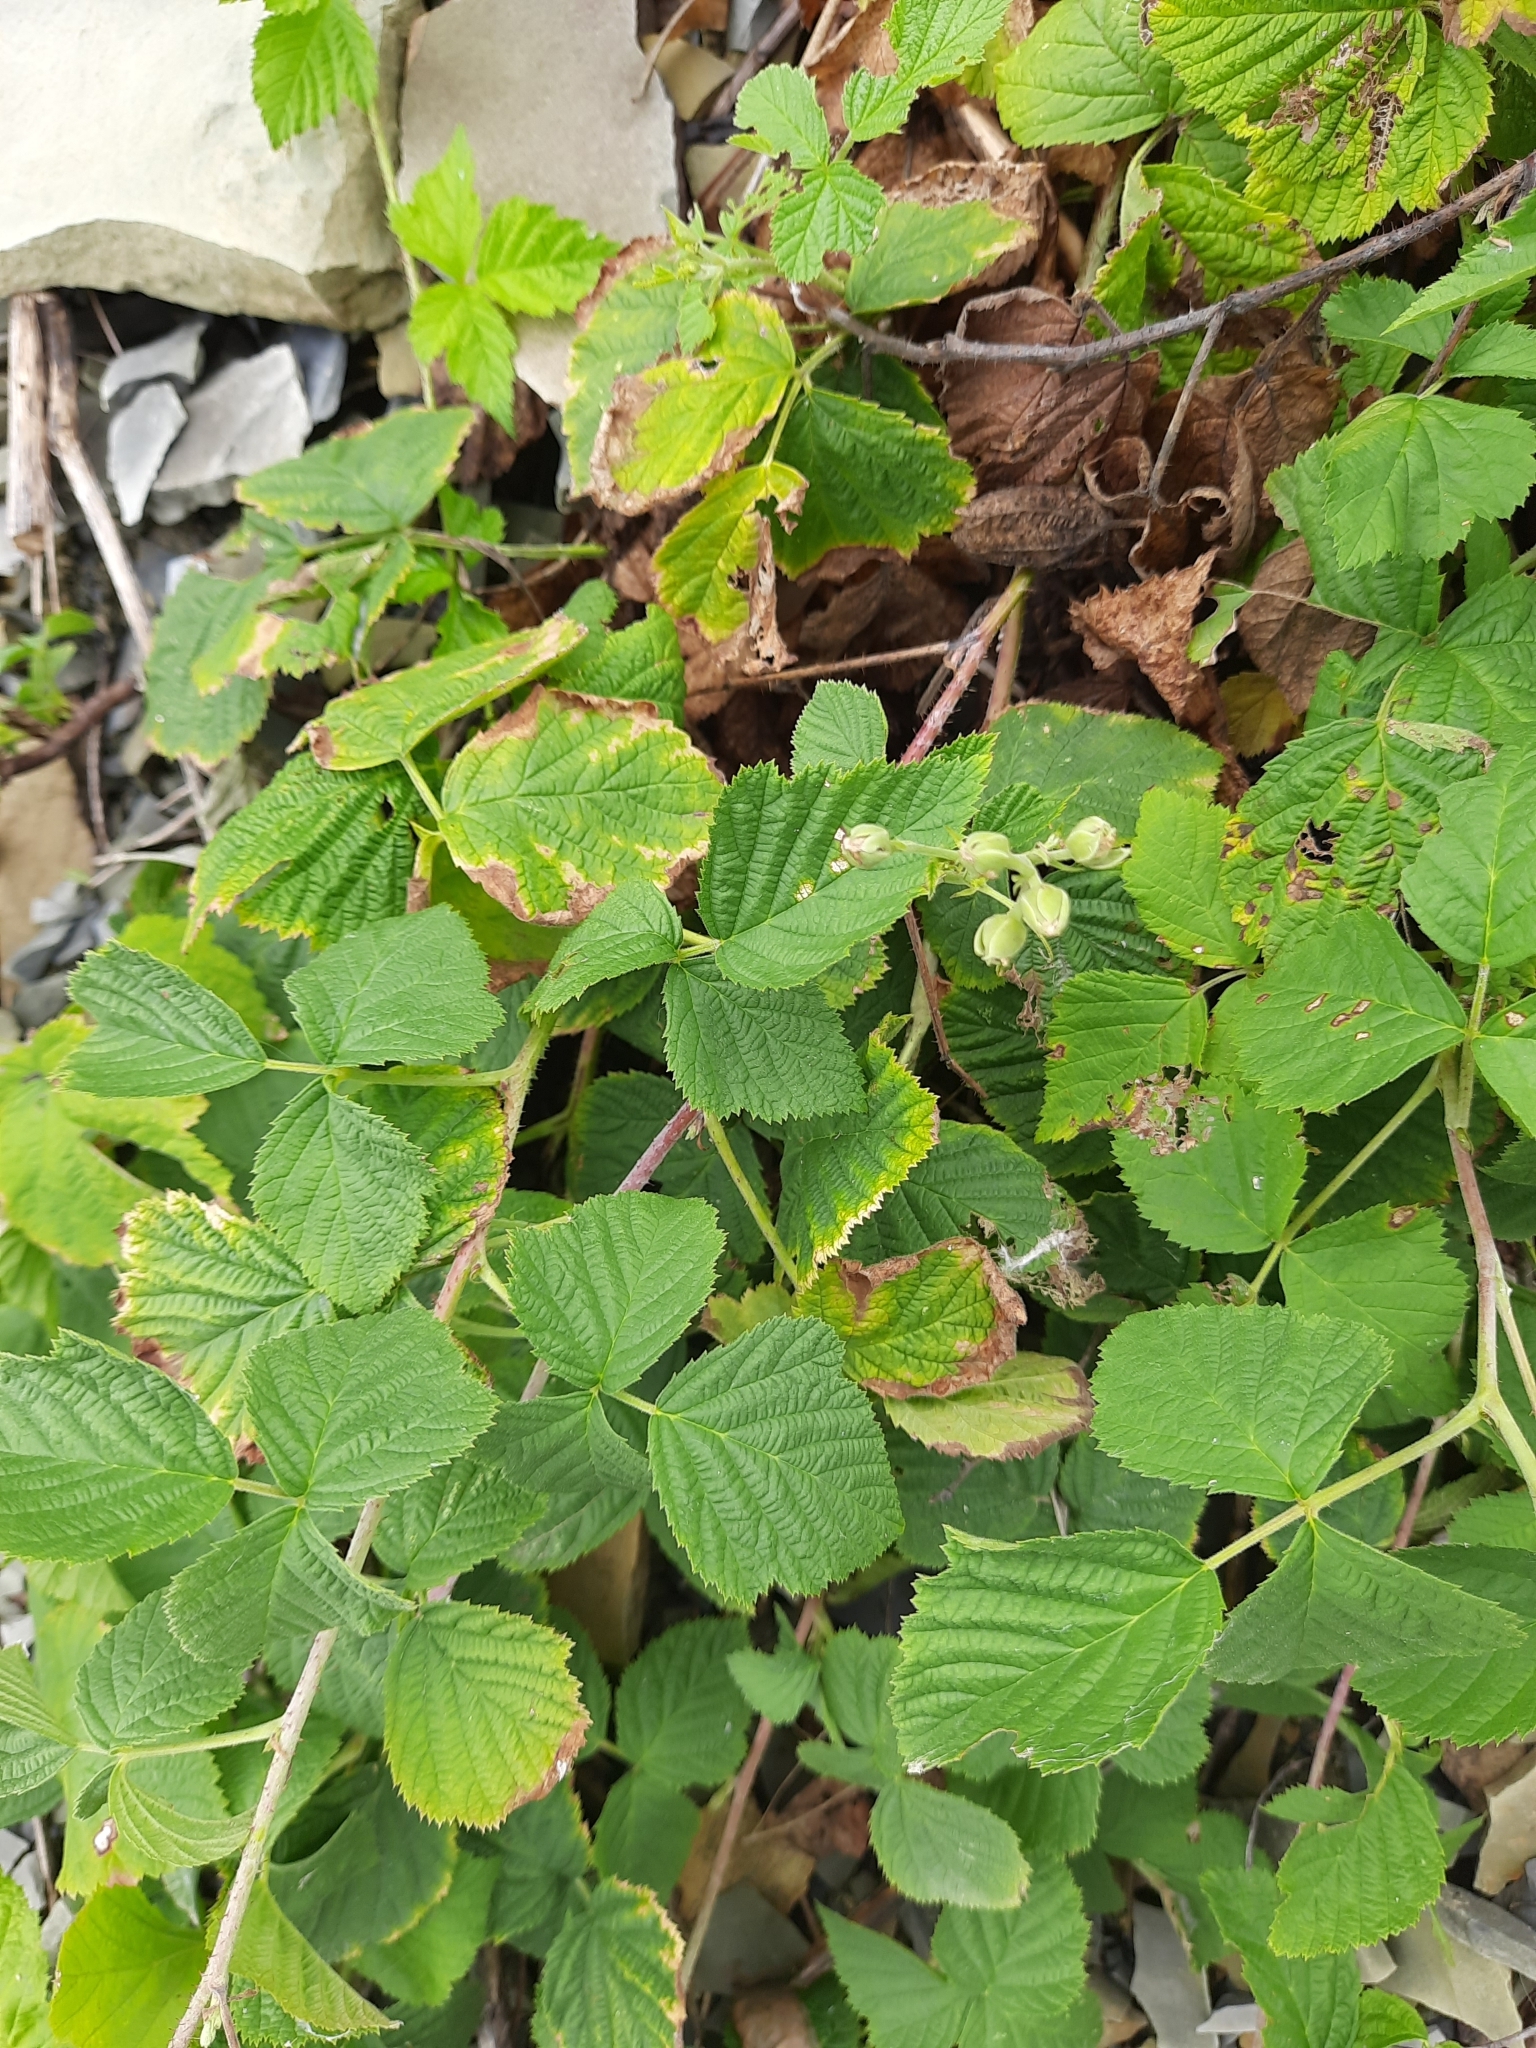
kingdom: Plantae
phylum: Tracheophyta
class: Magnoliopsida
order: Rosales
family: Rosaceae
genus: Rubus
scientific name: Rubus caesius
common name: Dewberry
